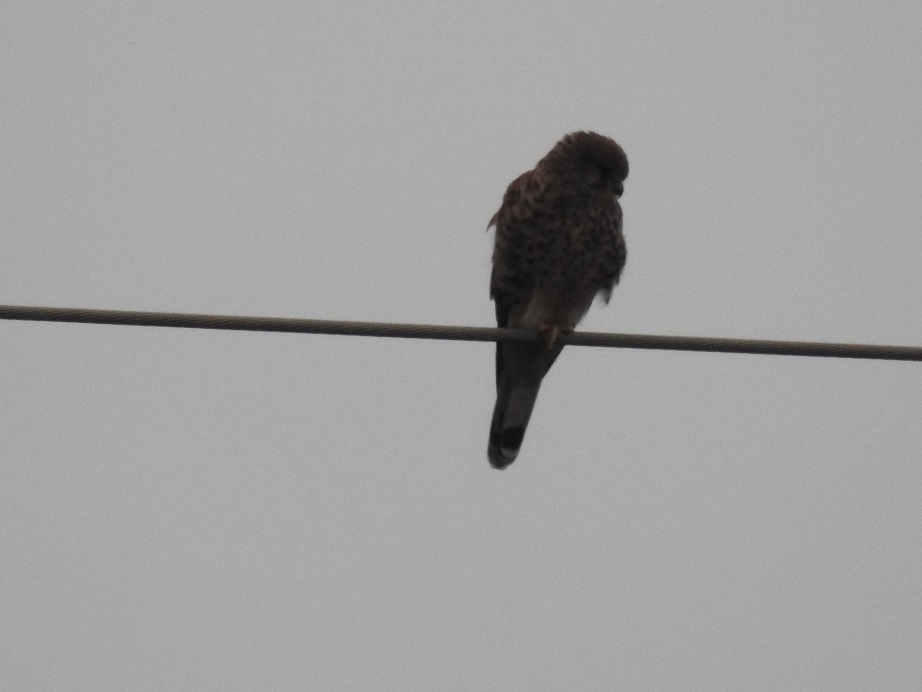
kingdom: Animalia
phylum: Chordata
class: Aves
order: Falconiformes
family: Falconidae
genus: Falco
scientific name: Falco tinnunculus
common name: Common kestrel
